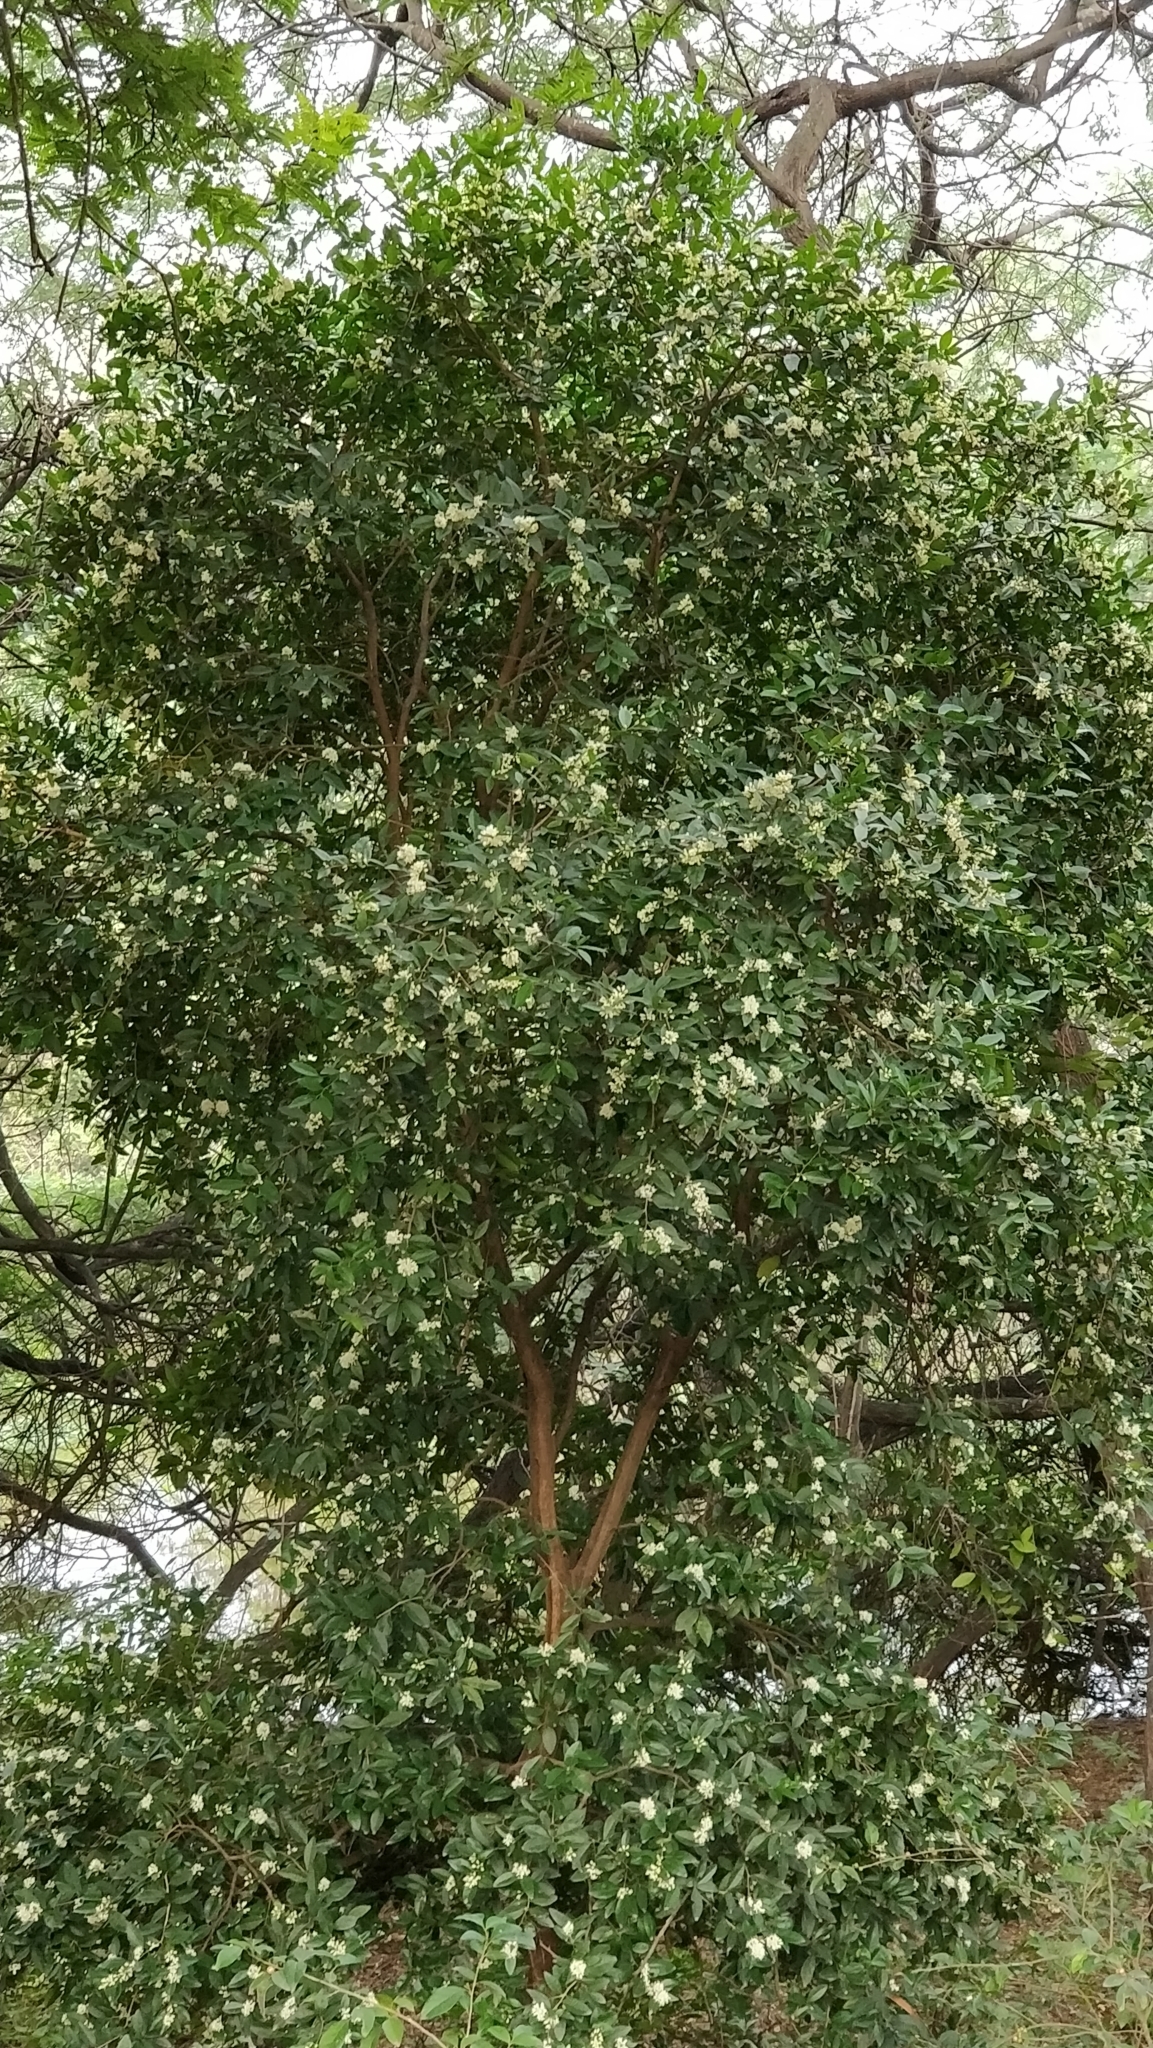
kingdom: Plantae
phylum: Tracheophyta
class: Magnoliopsida
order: Sapindales
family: Rutaceae
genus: Atalantia
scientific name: Atalantia monophylla
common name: Indian-atalantia
